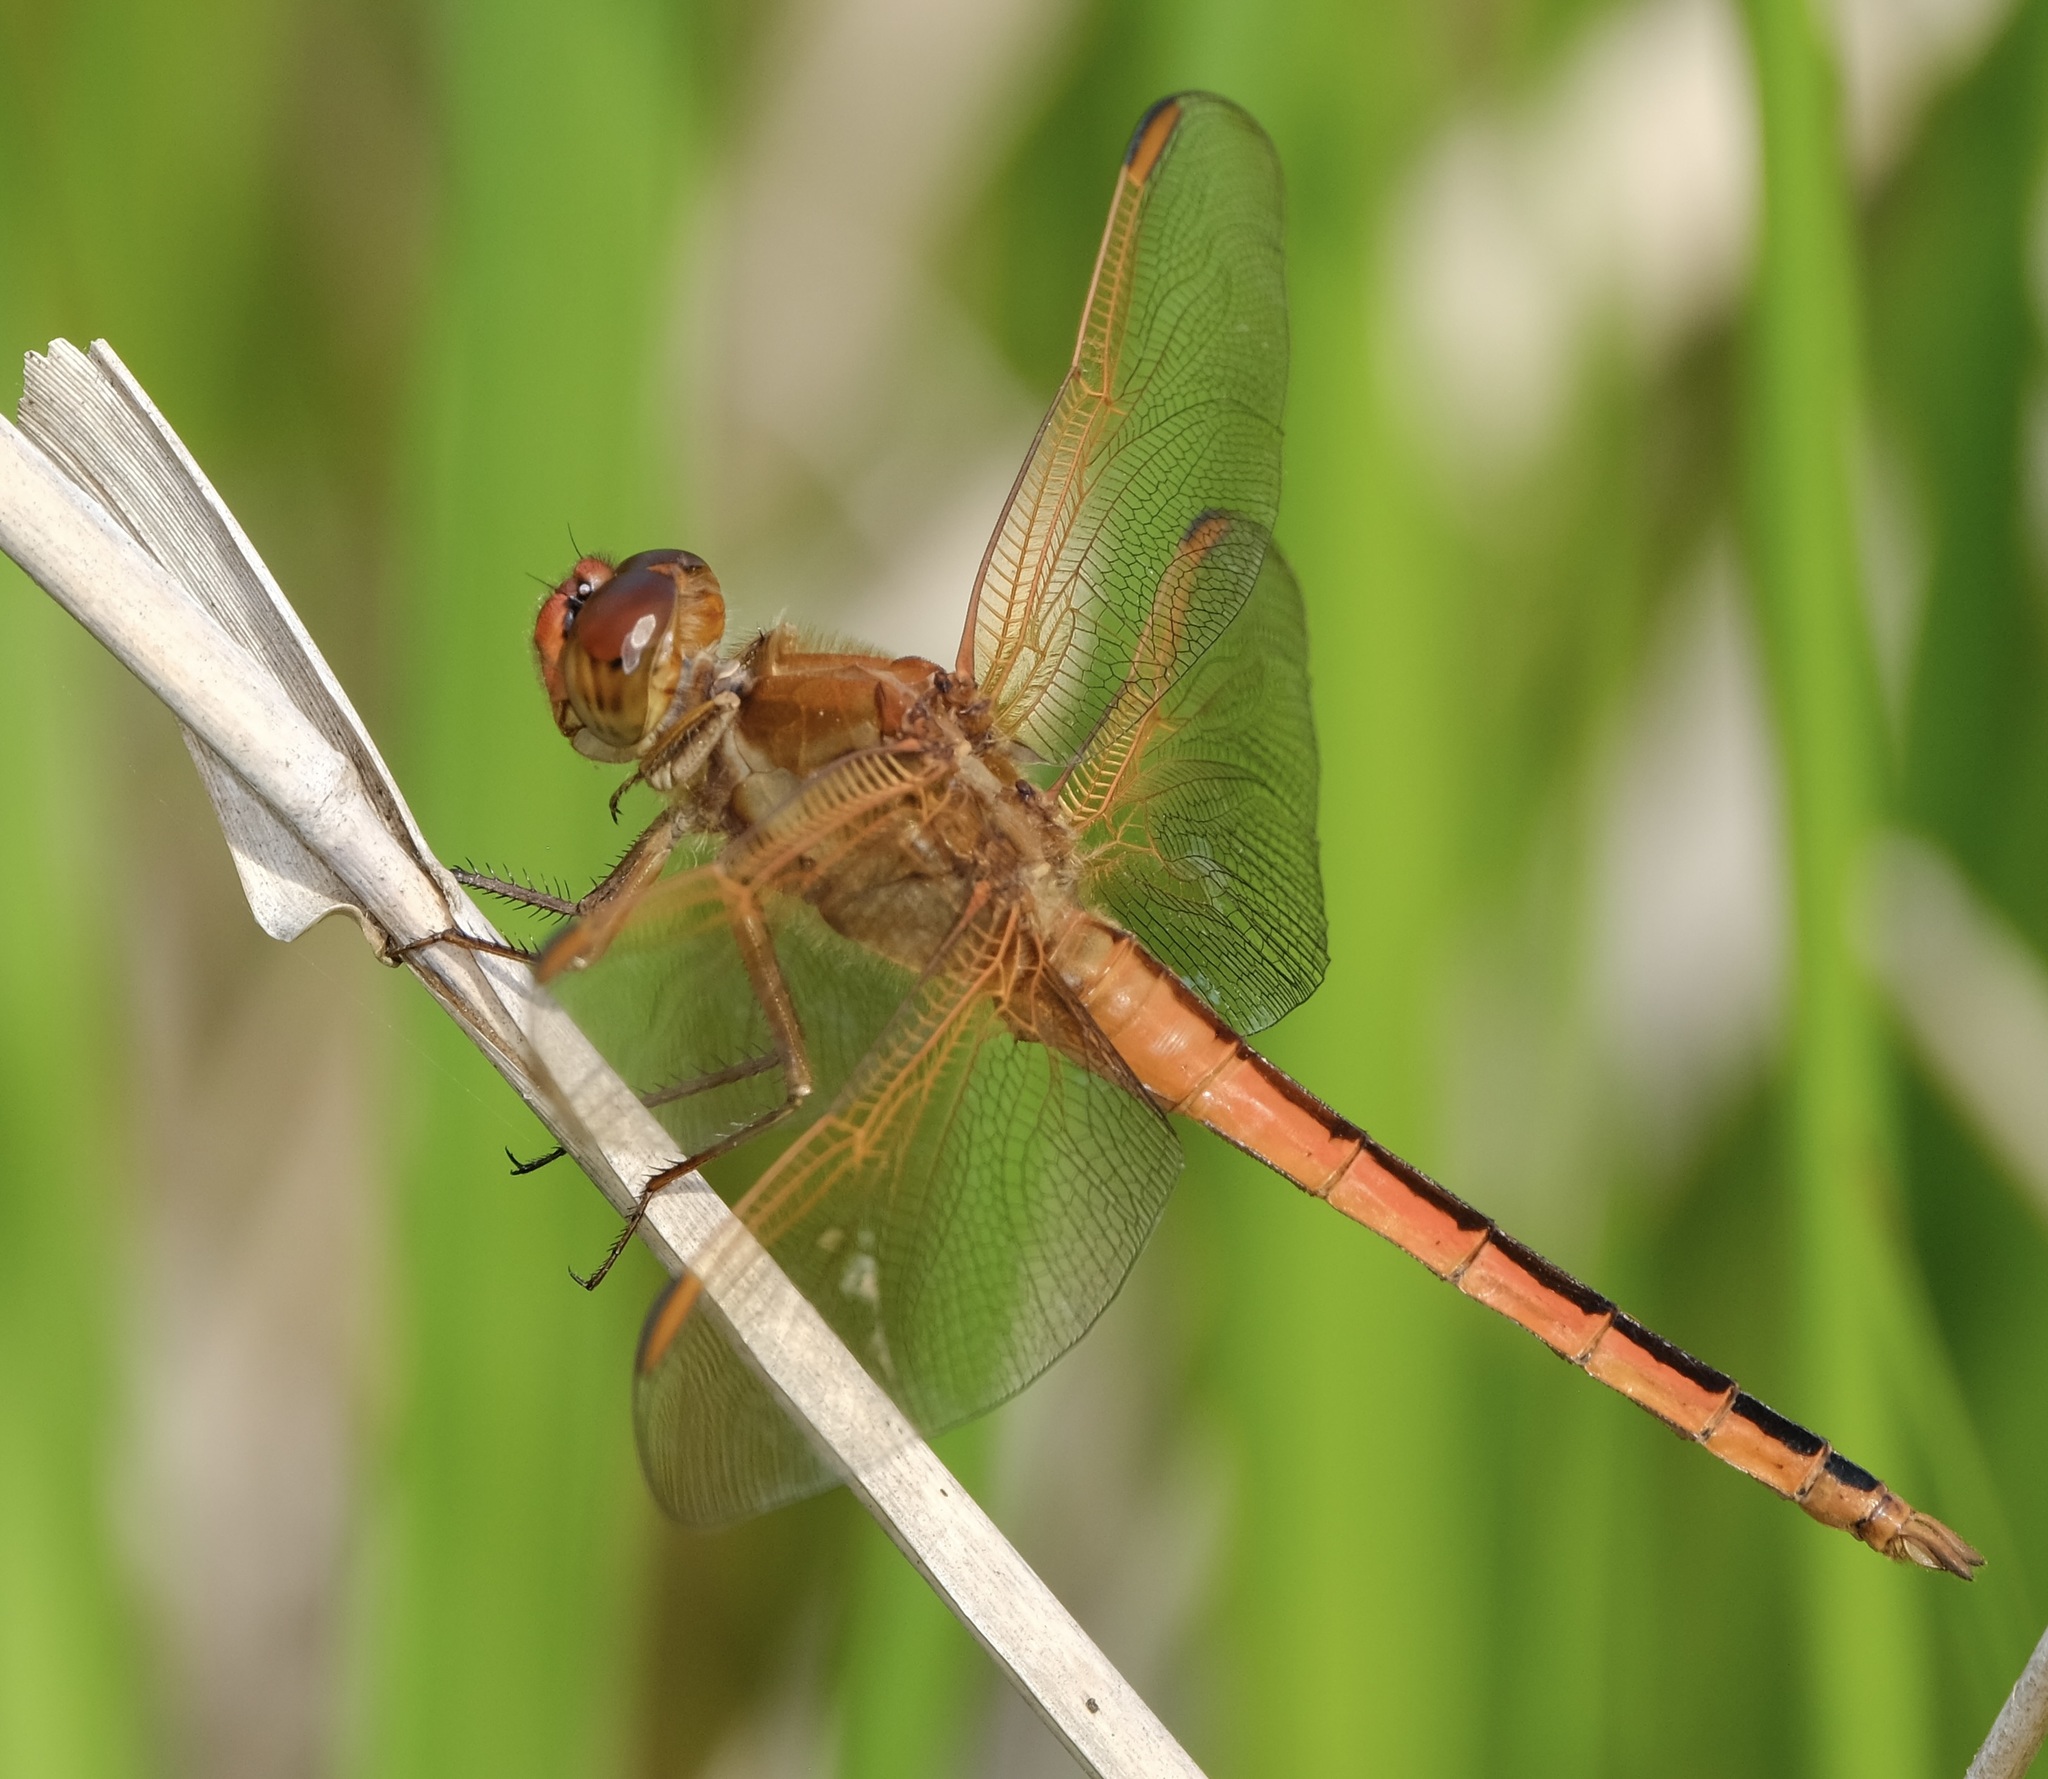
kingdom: Animalia
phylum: Arthropoda
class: Insecta
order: Odonata
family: Libellulidae
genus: Libellula
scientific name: Libellula needhami
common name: Needham's skimmer
